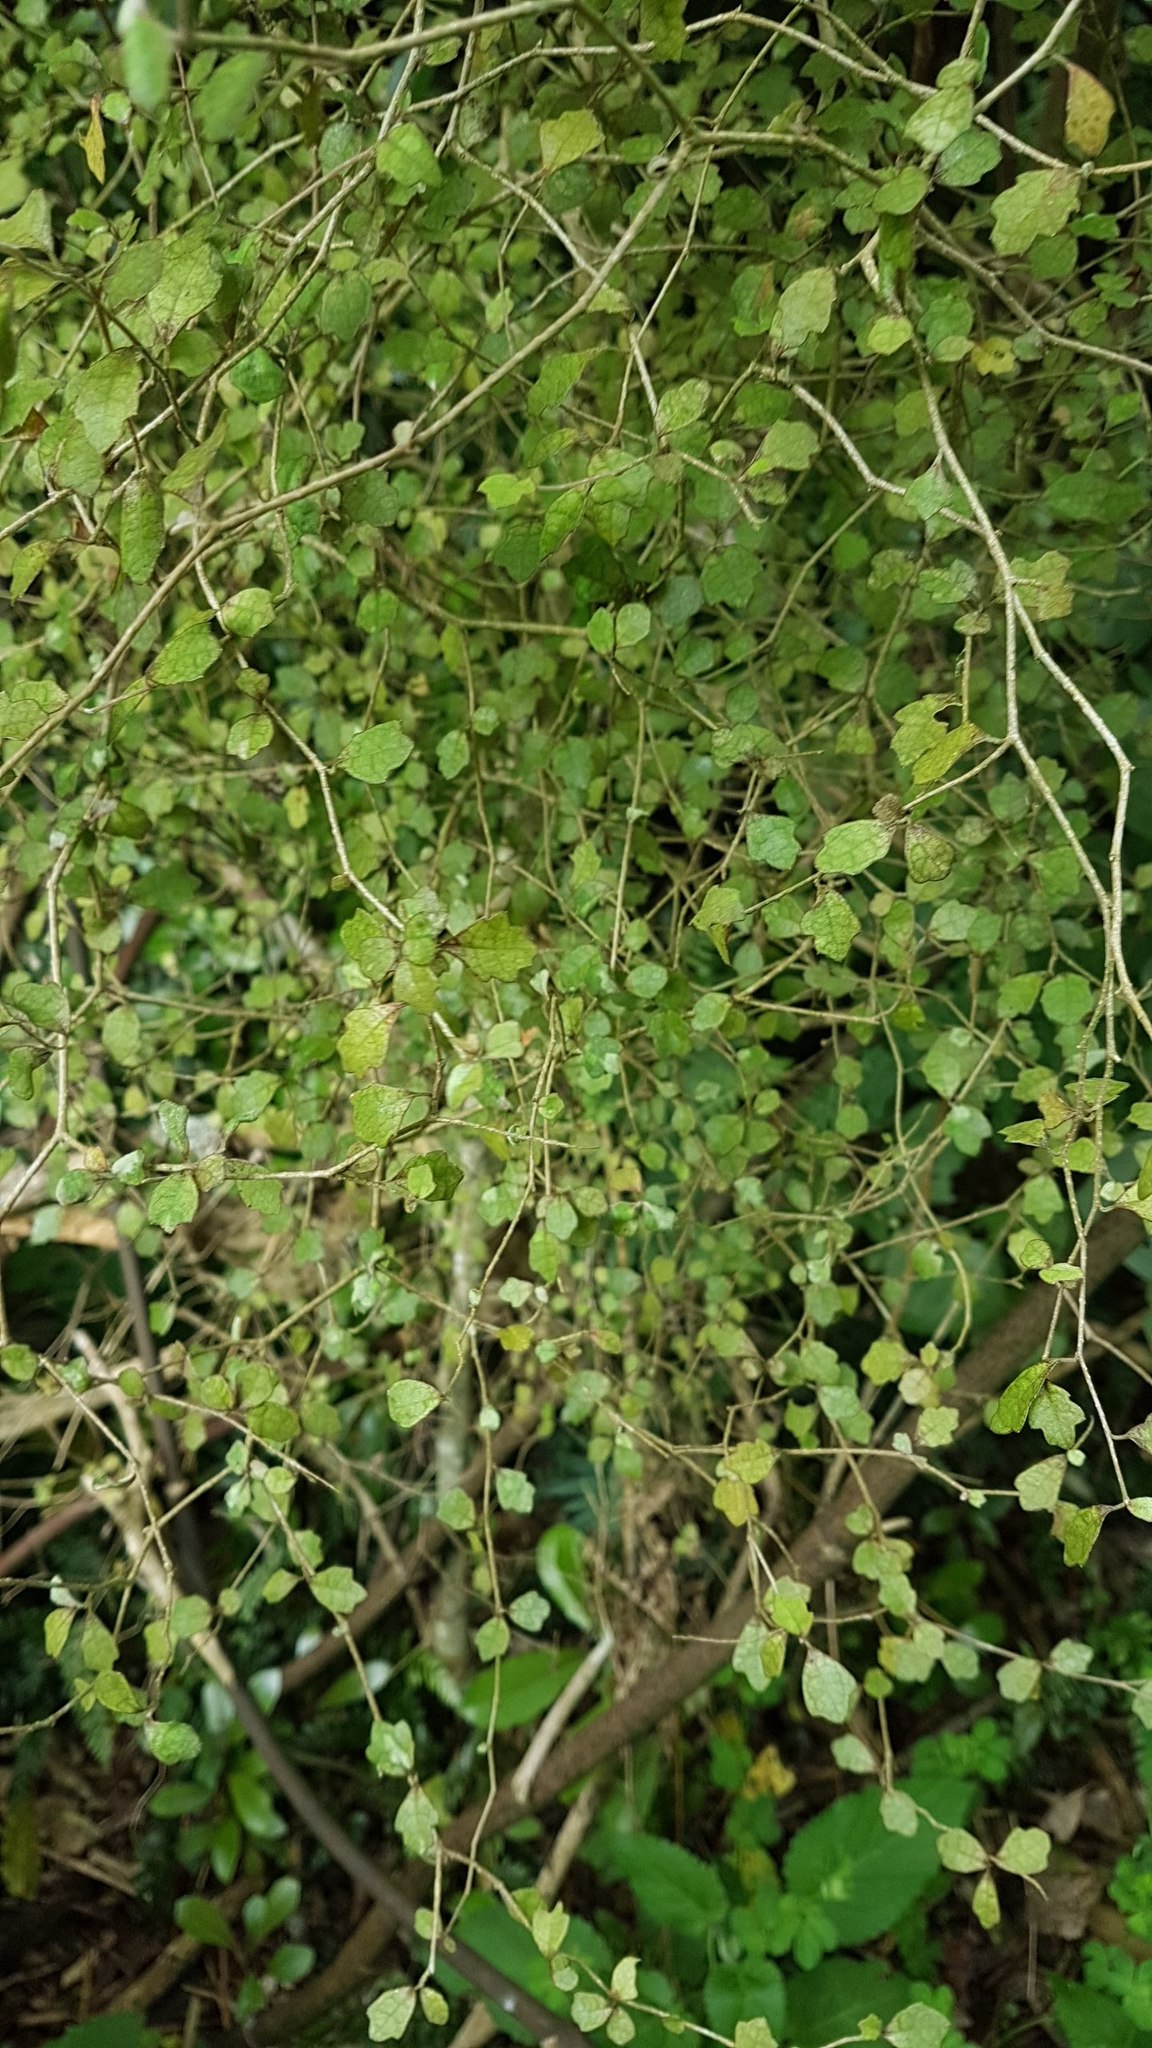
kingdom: Plantae
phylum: Tracheophyta
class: Magnoliopsida
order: Apiales
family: Pennantiaceae
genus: Pennantia
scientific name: Pennantia corymbosa
